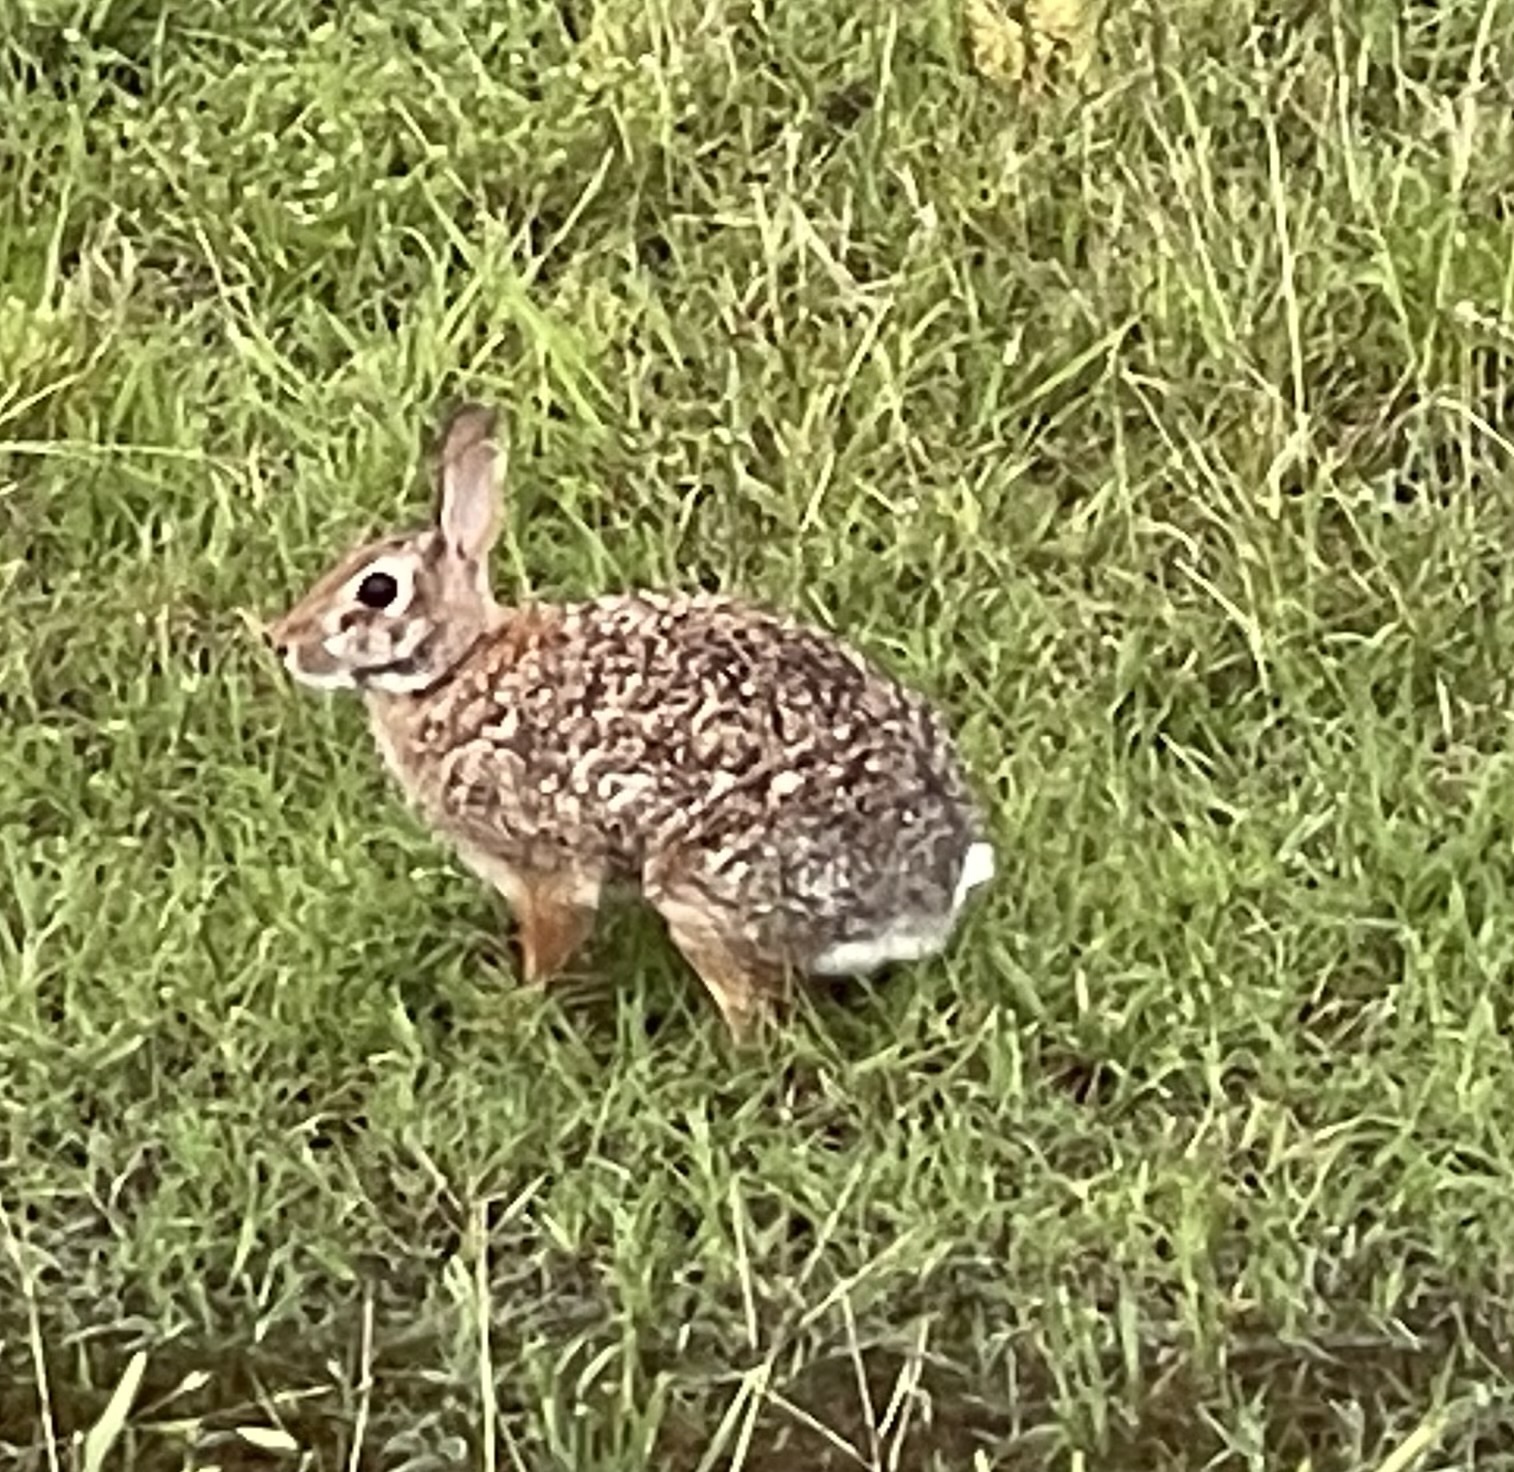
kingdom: Animalia
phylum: Chordata
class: Mammalia
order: Lagomorpha
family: Leporidae
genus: Sylvilagus
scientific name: Sylvilagus floridanus
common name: Eastern cottontail
